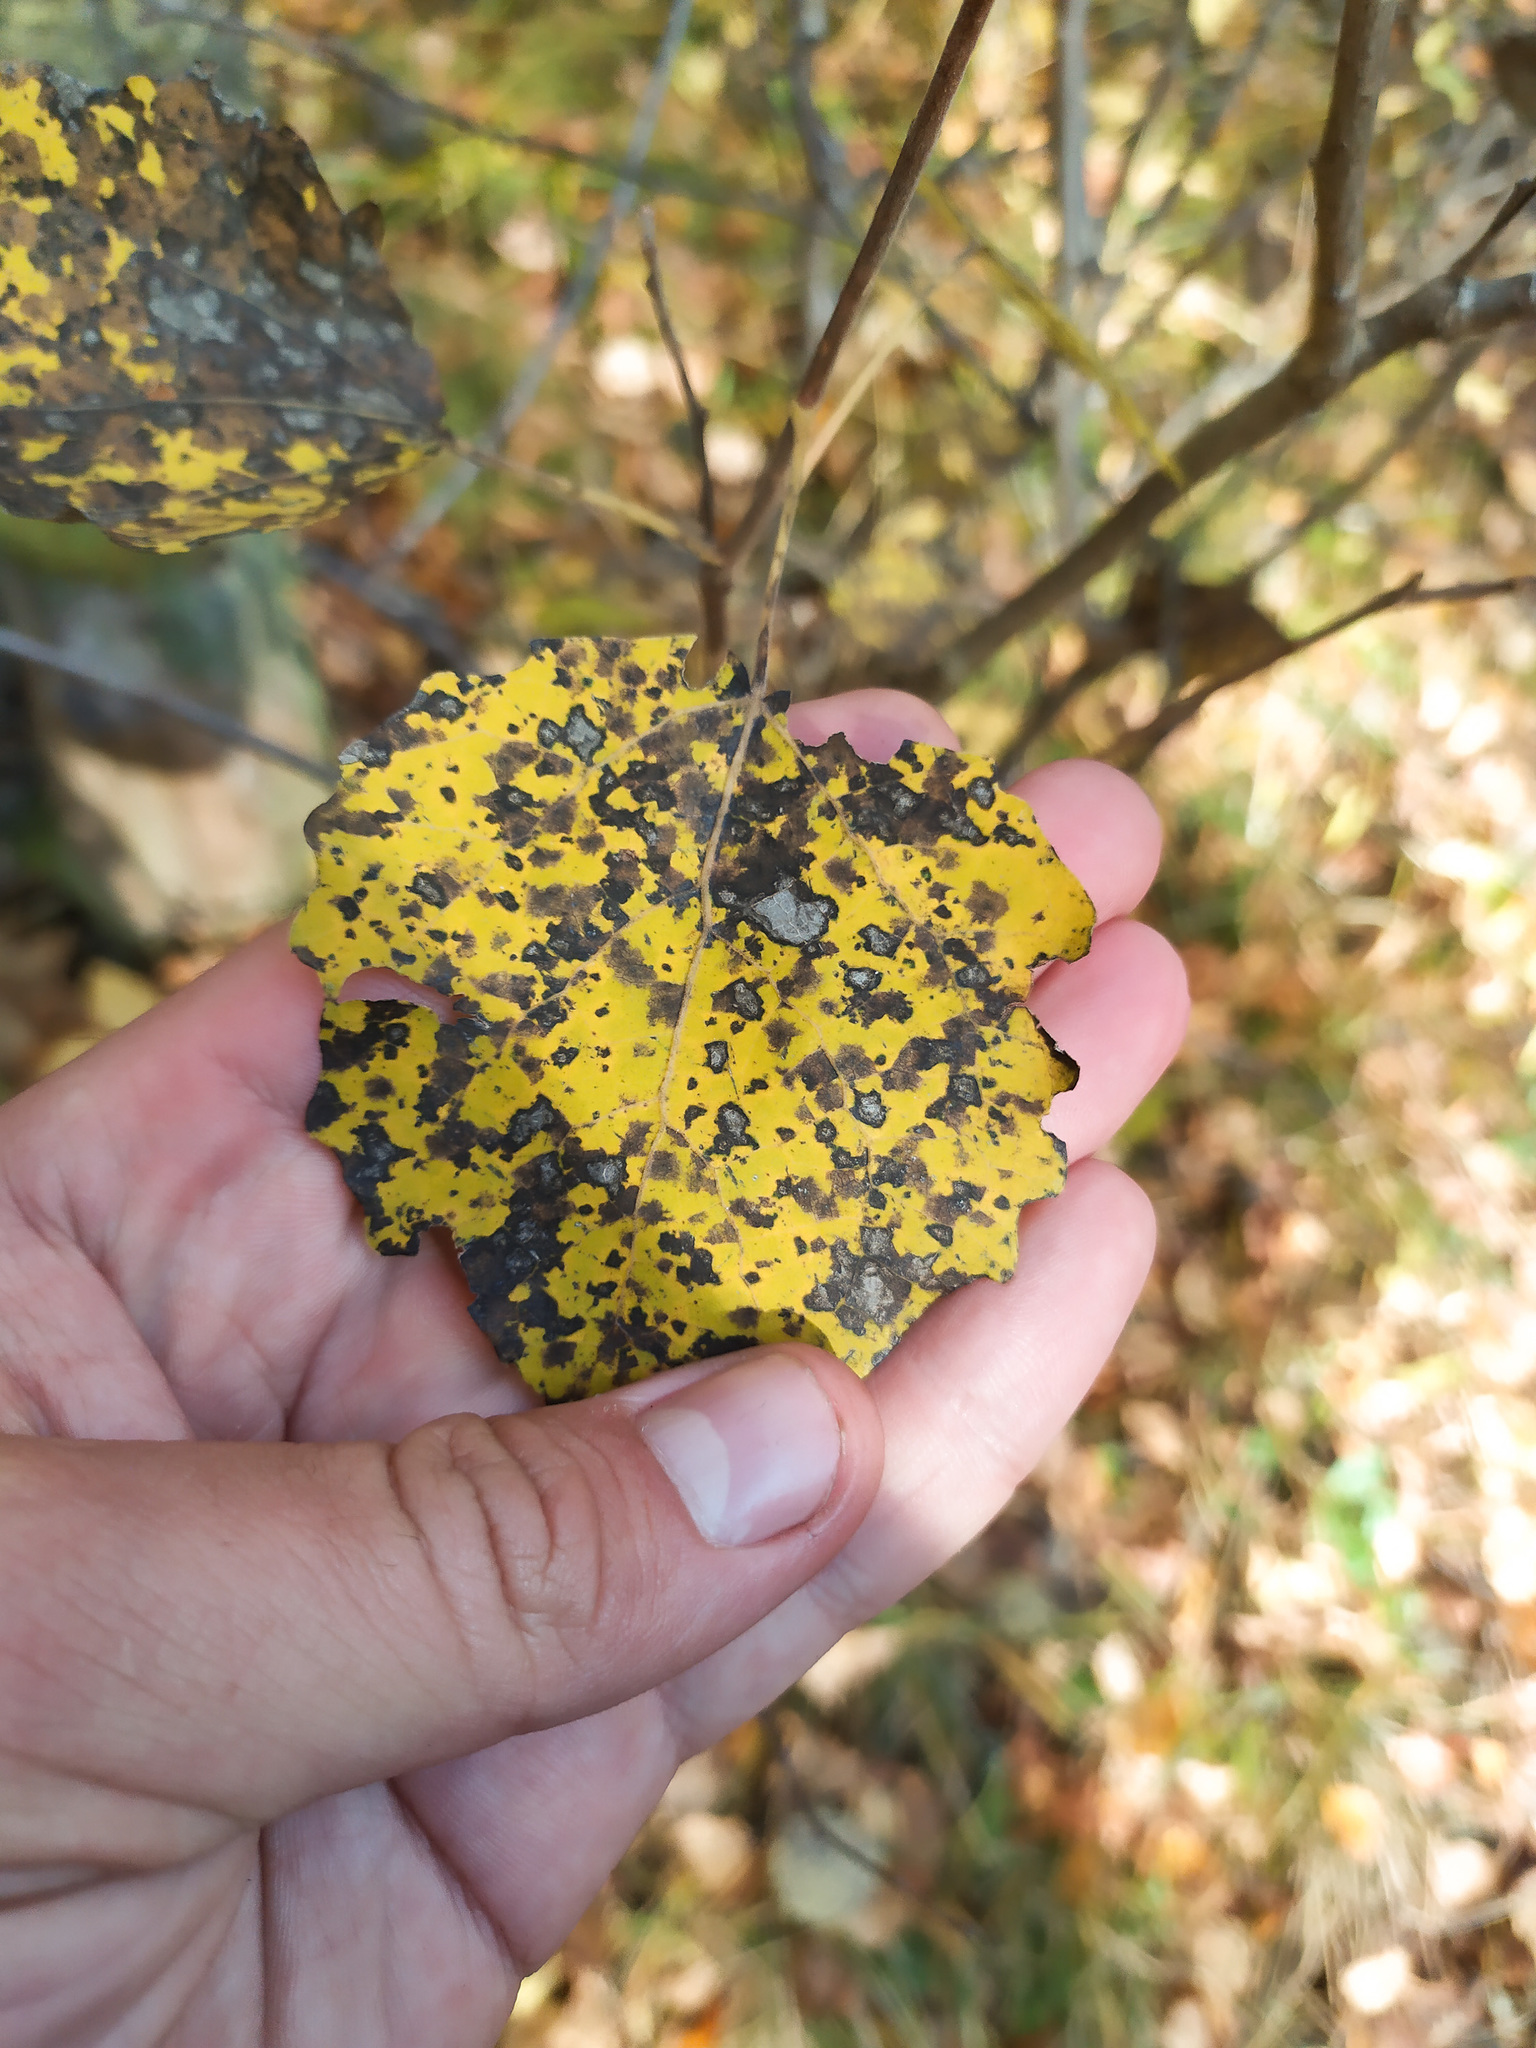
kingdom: Plantae
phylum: Tracheophyta
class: Magnoliopsida
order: Malpighiales
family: Salicaceae
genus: Populus
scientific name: Populus tremula
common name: European aspen
